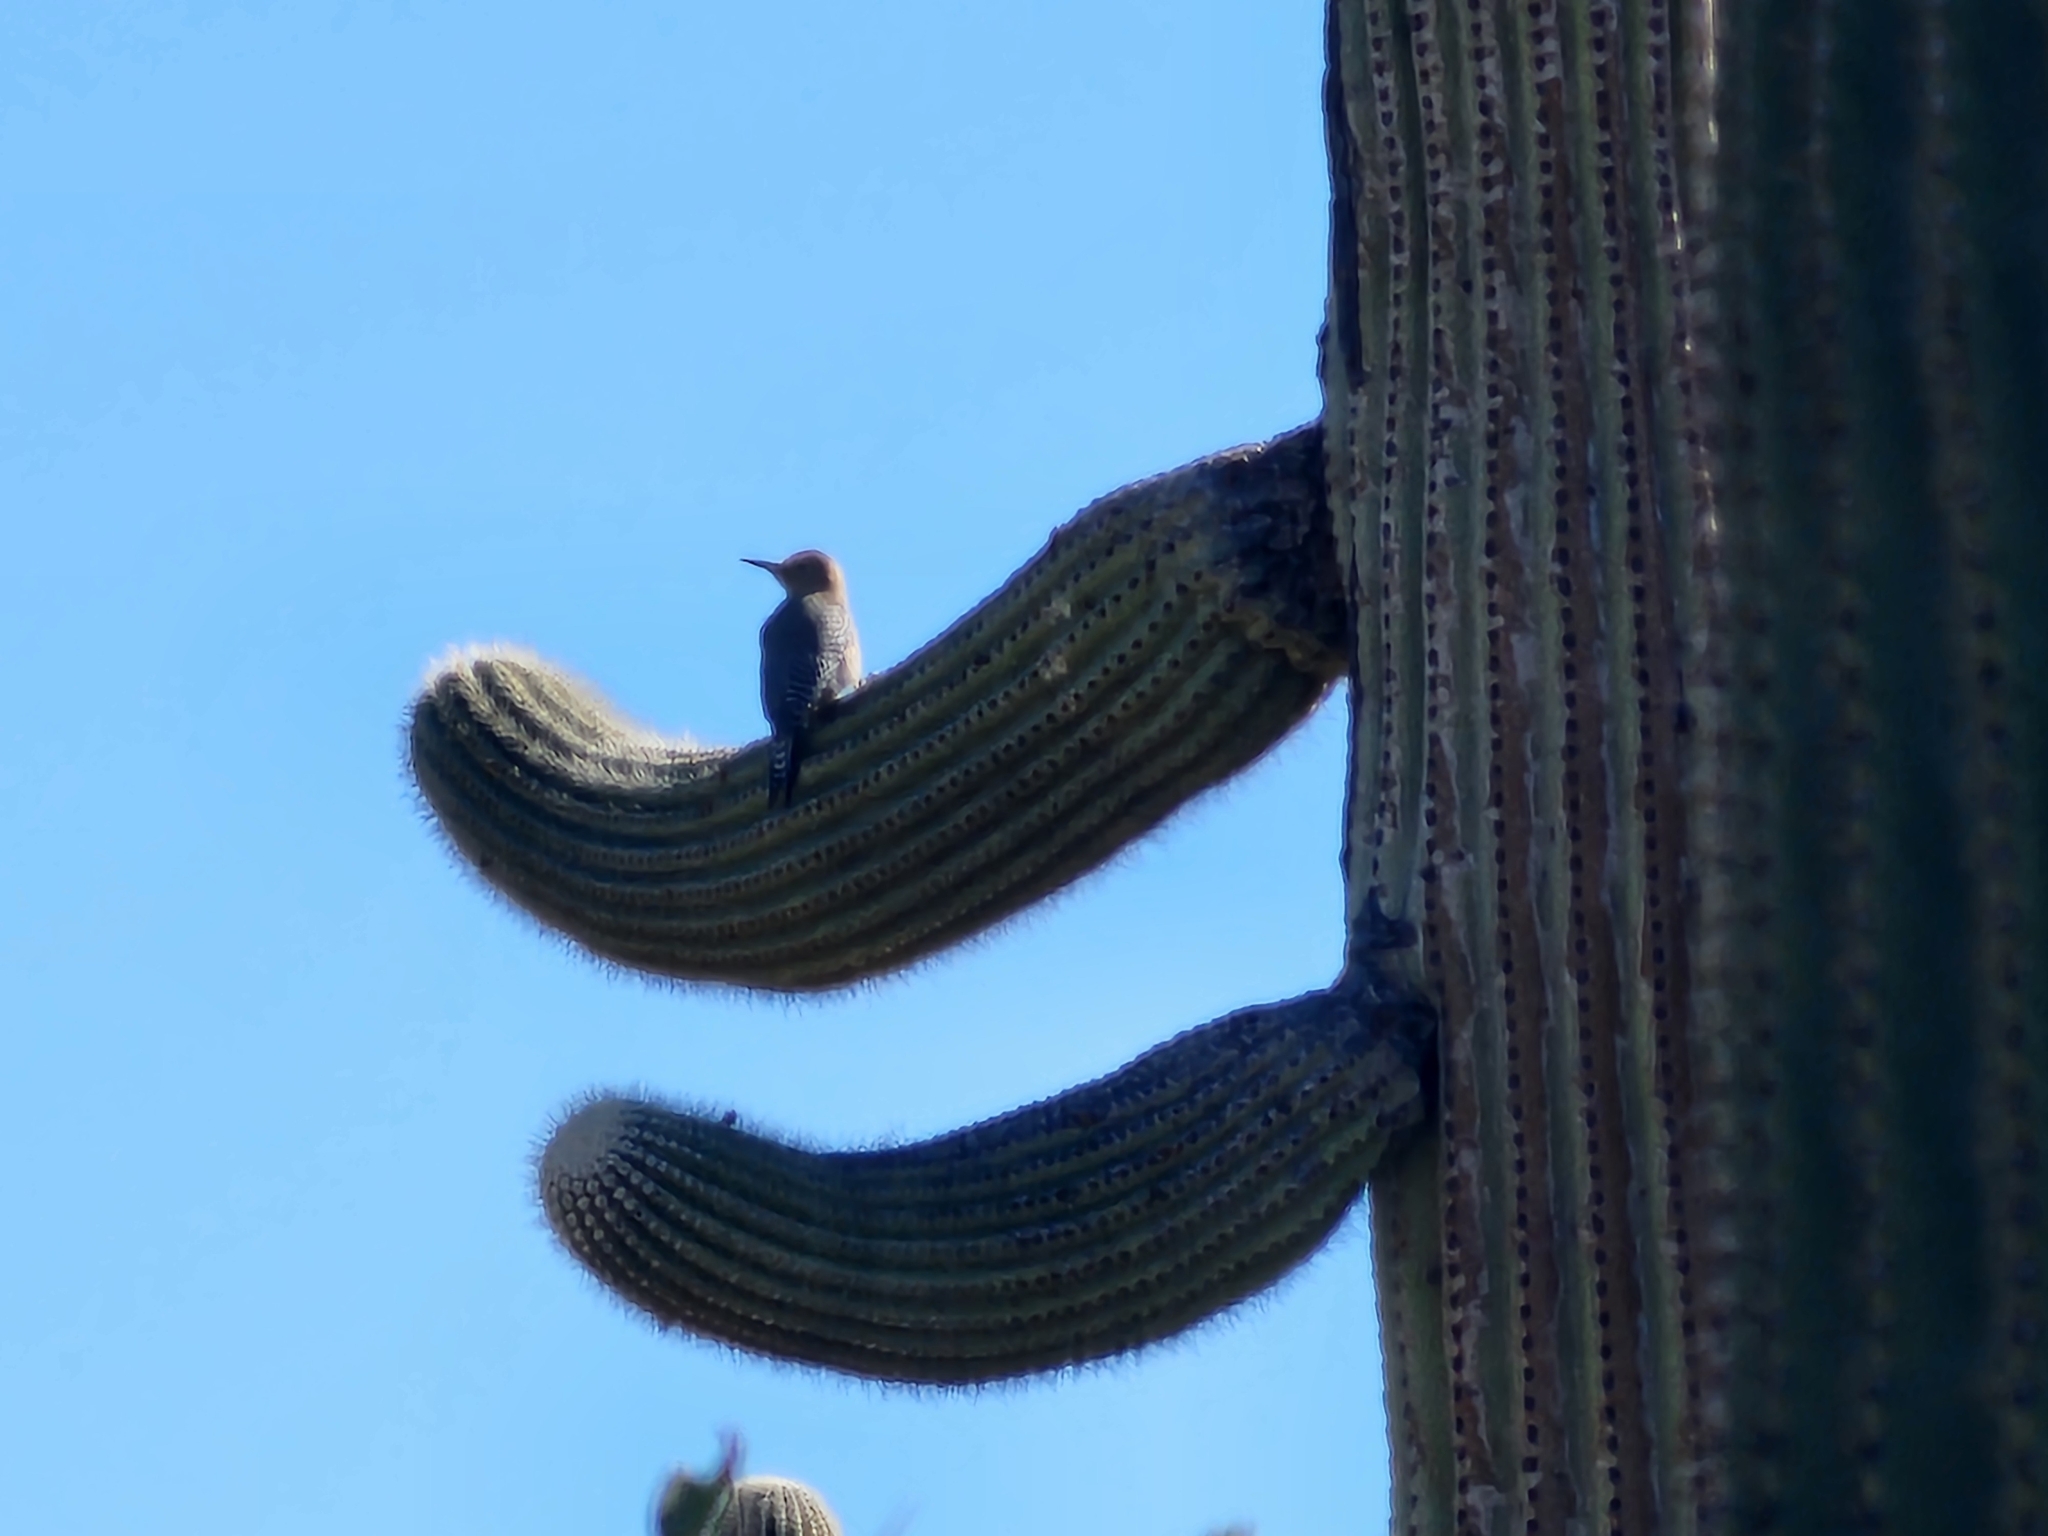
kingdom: Animalia
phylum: Chordata
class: Aves
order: Piciformes
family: Picidae
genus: Melanerpes
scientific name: Melanerpes uropygialis
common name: Gila woodpecker
